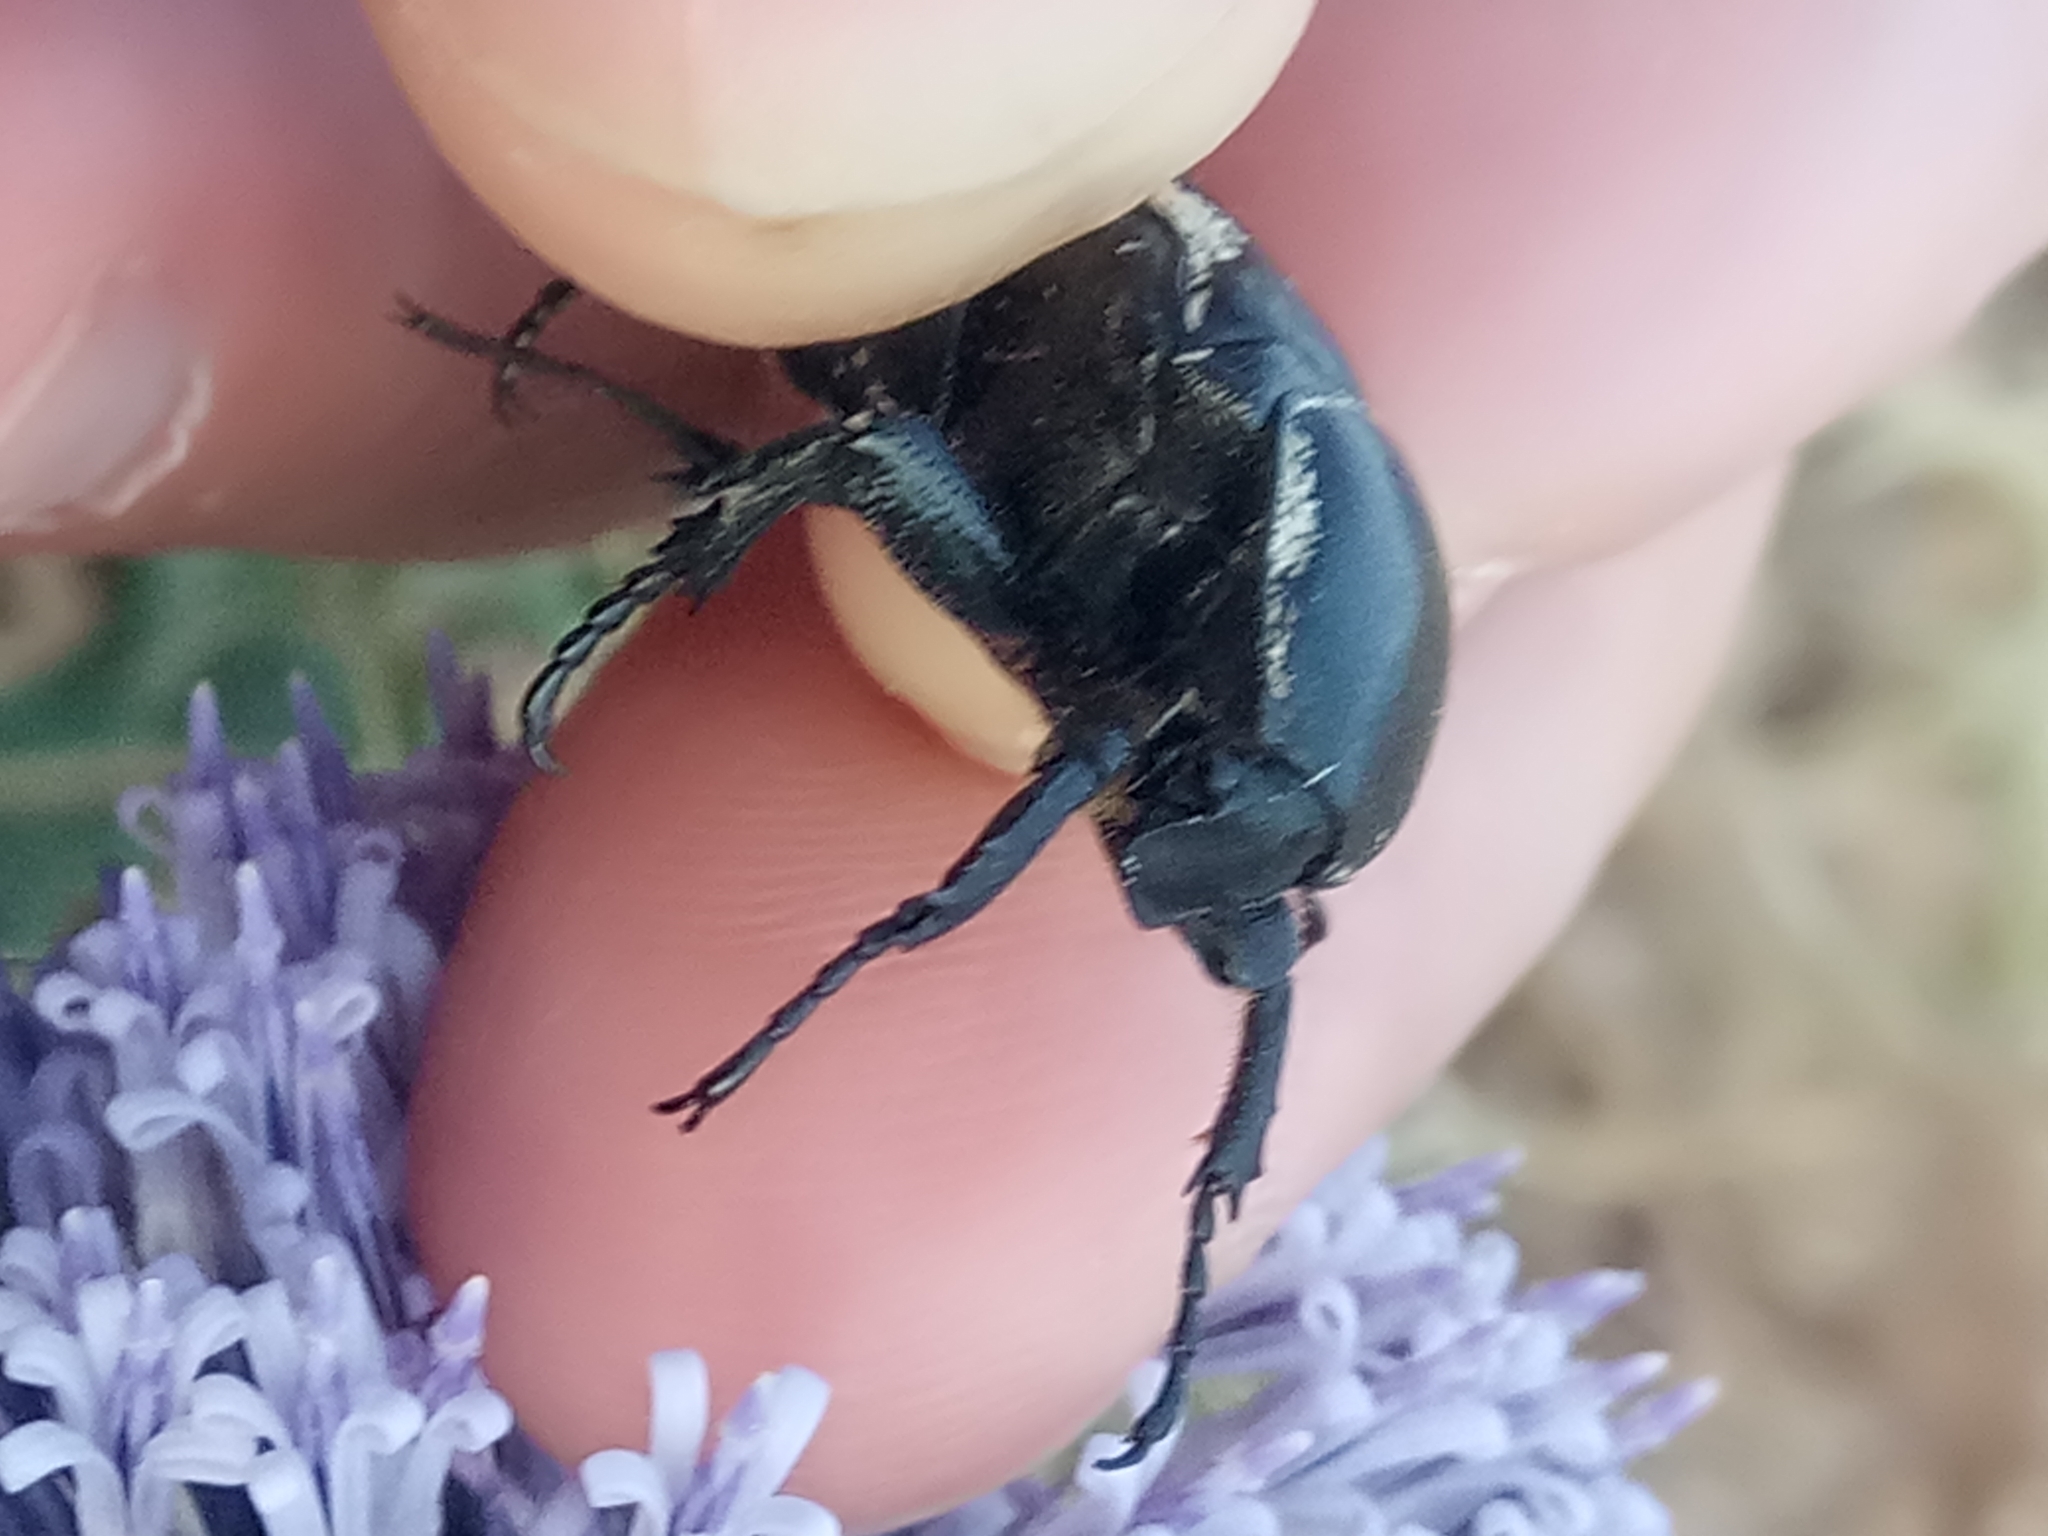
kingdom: Animalia
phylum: Arthropoda
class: Insecta
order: Coleoptera
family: Scarabaeidae
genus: Aethiessa
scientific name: Aethiessa floralis
